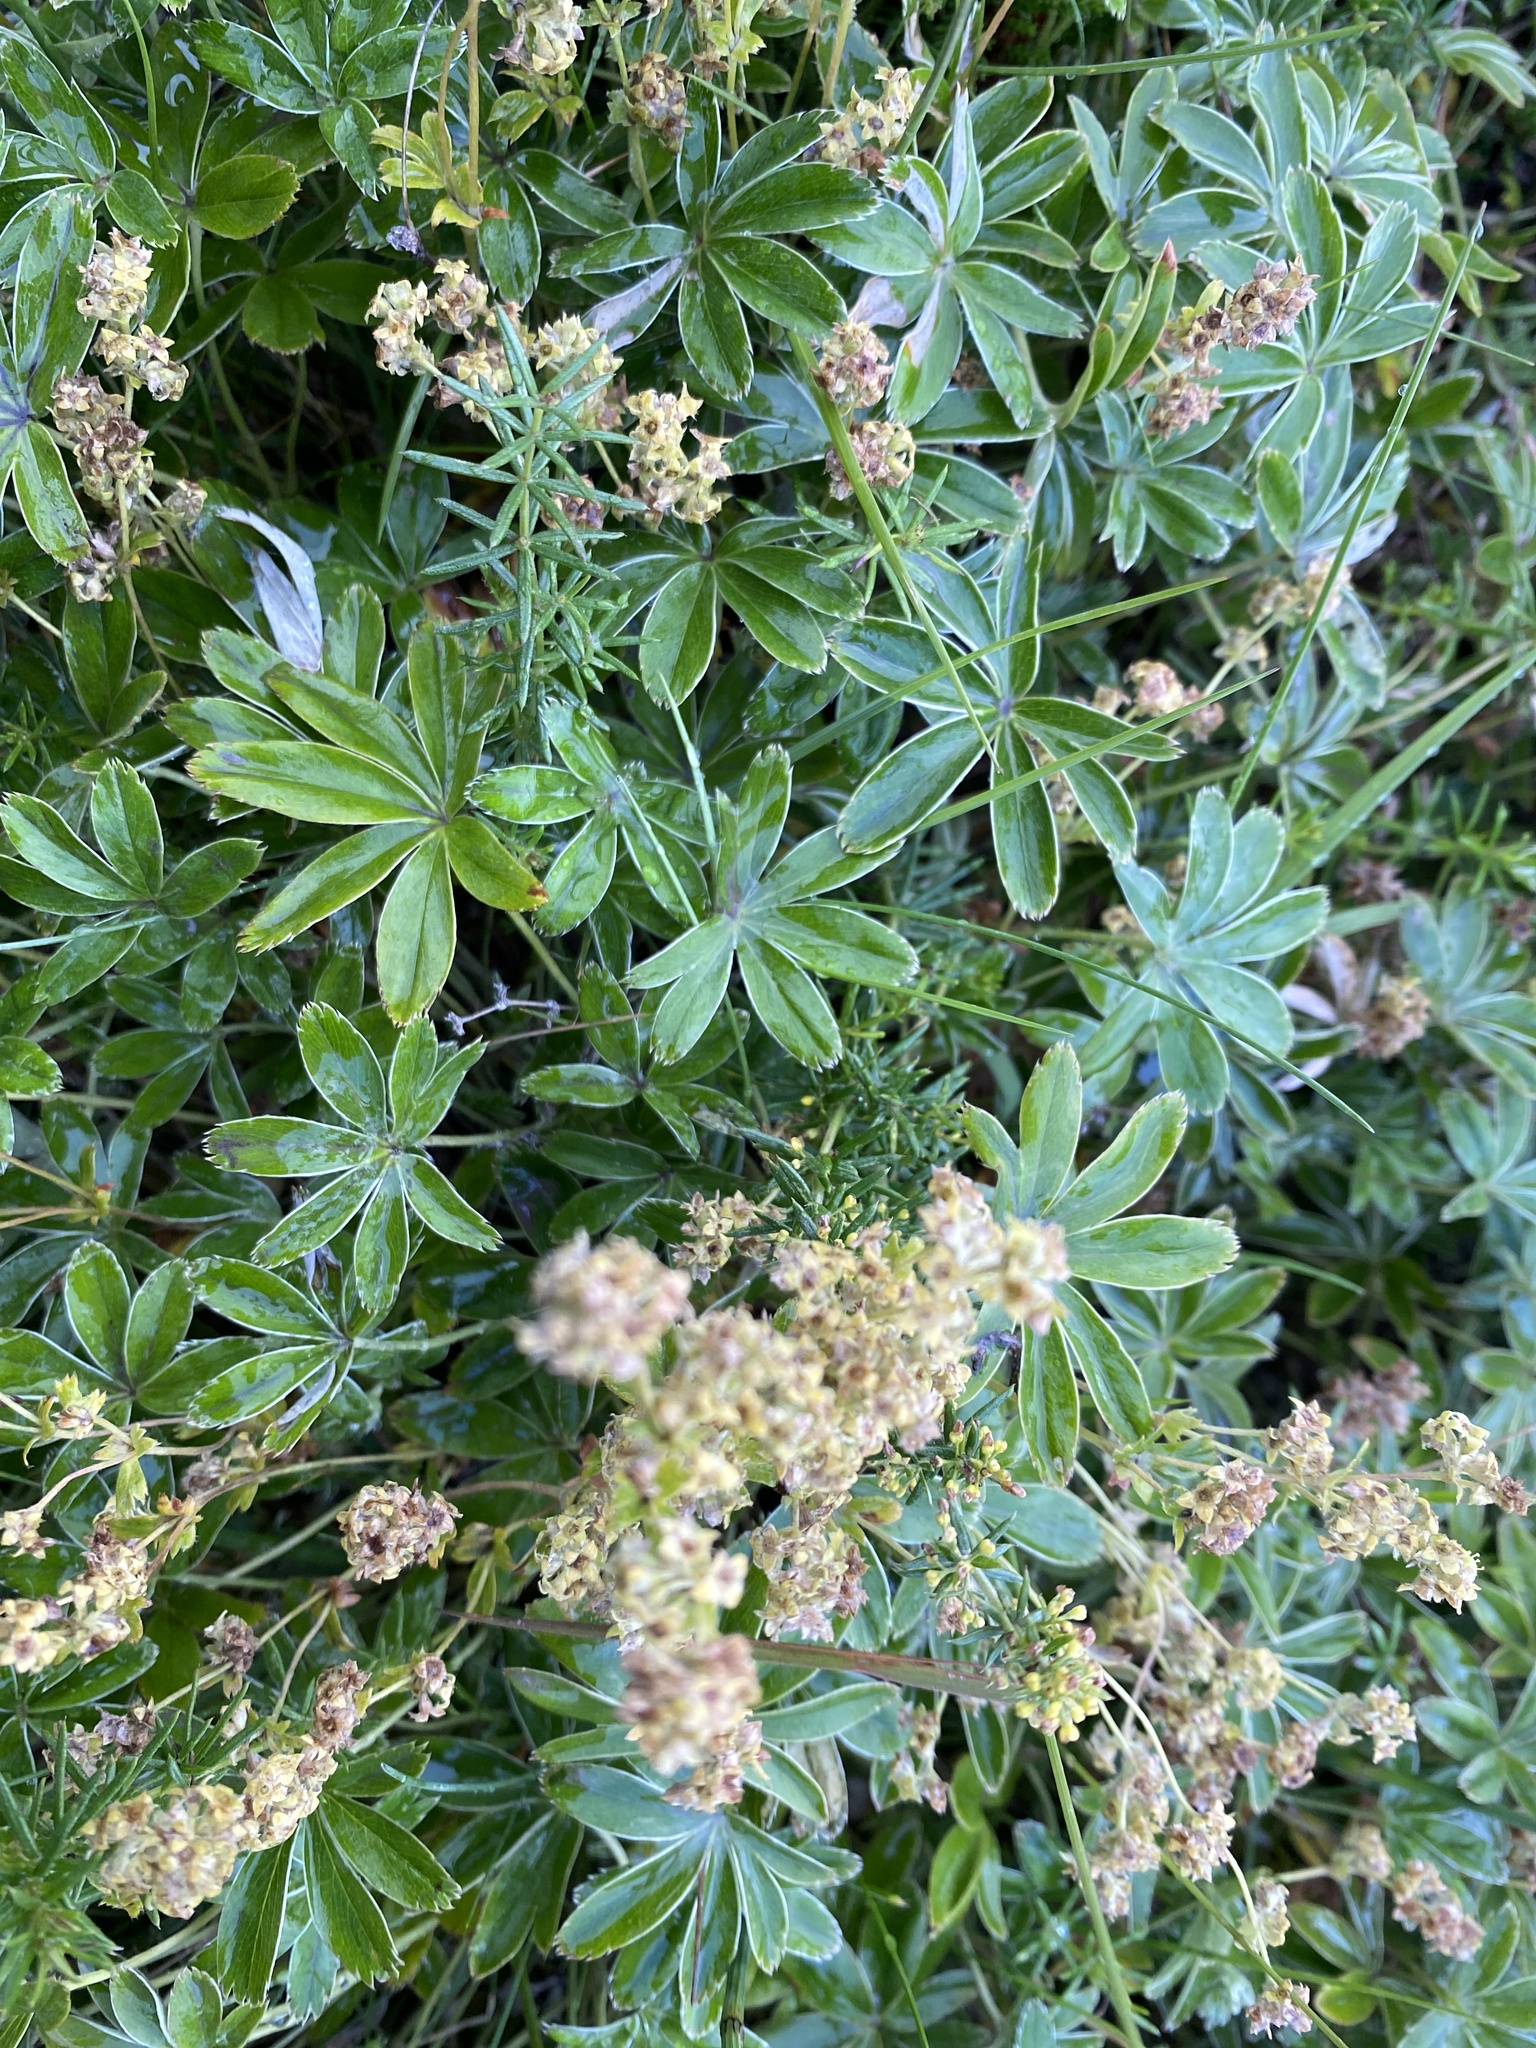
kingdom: Plantae
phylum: Tracheophyta
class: Magnoliopsida
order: Rosales
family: Rosaceae
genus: Alchemilla
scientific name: Alchemilla alpina
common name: Alpine lady's-mantle
